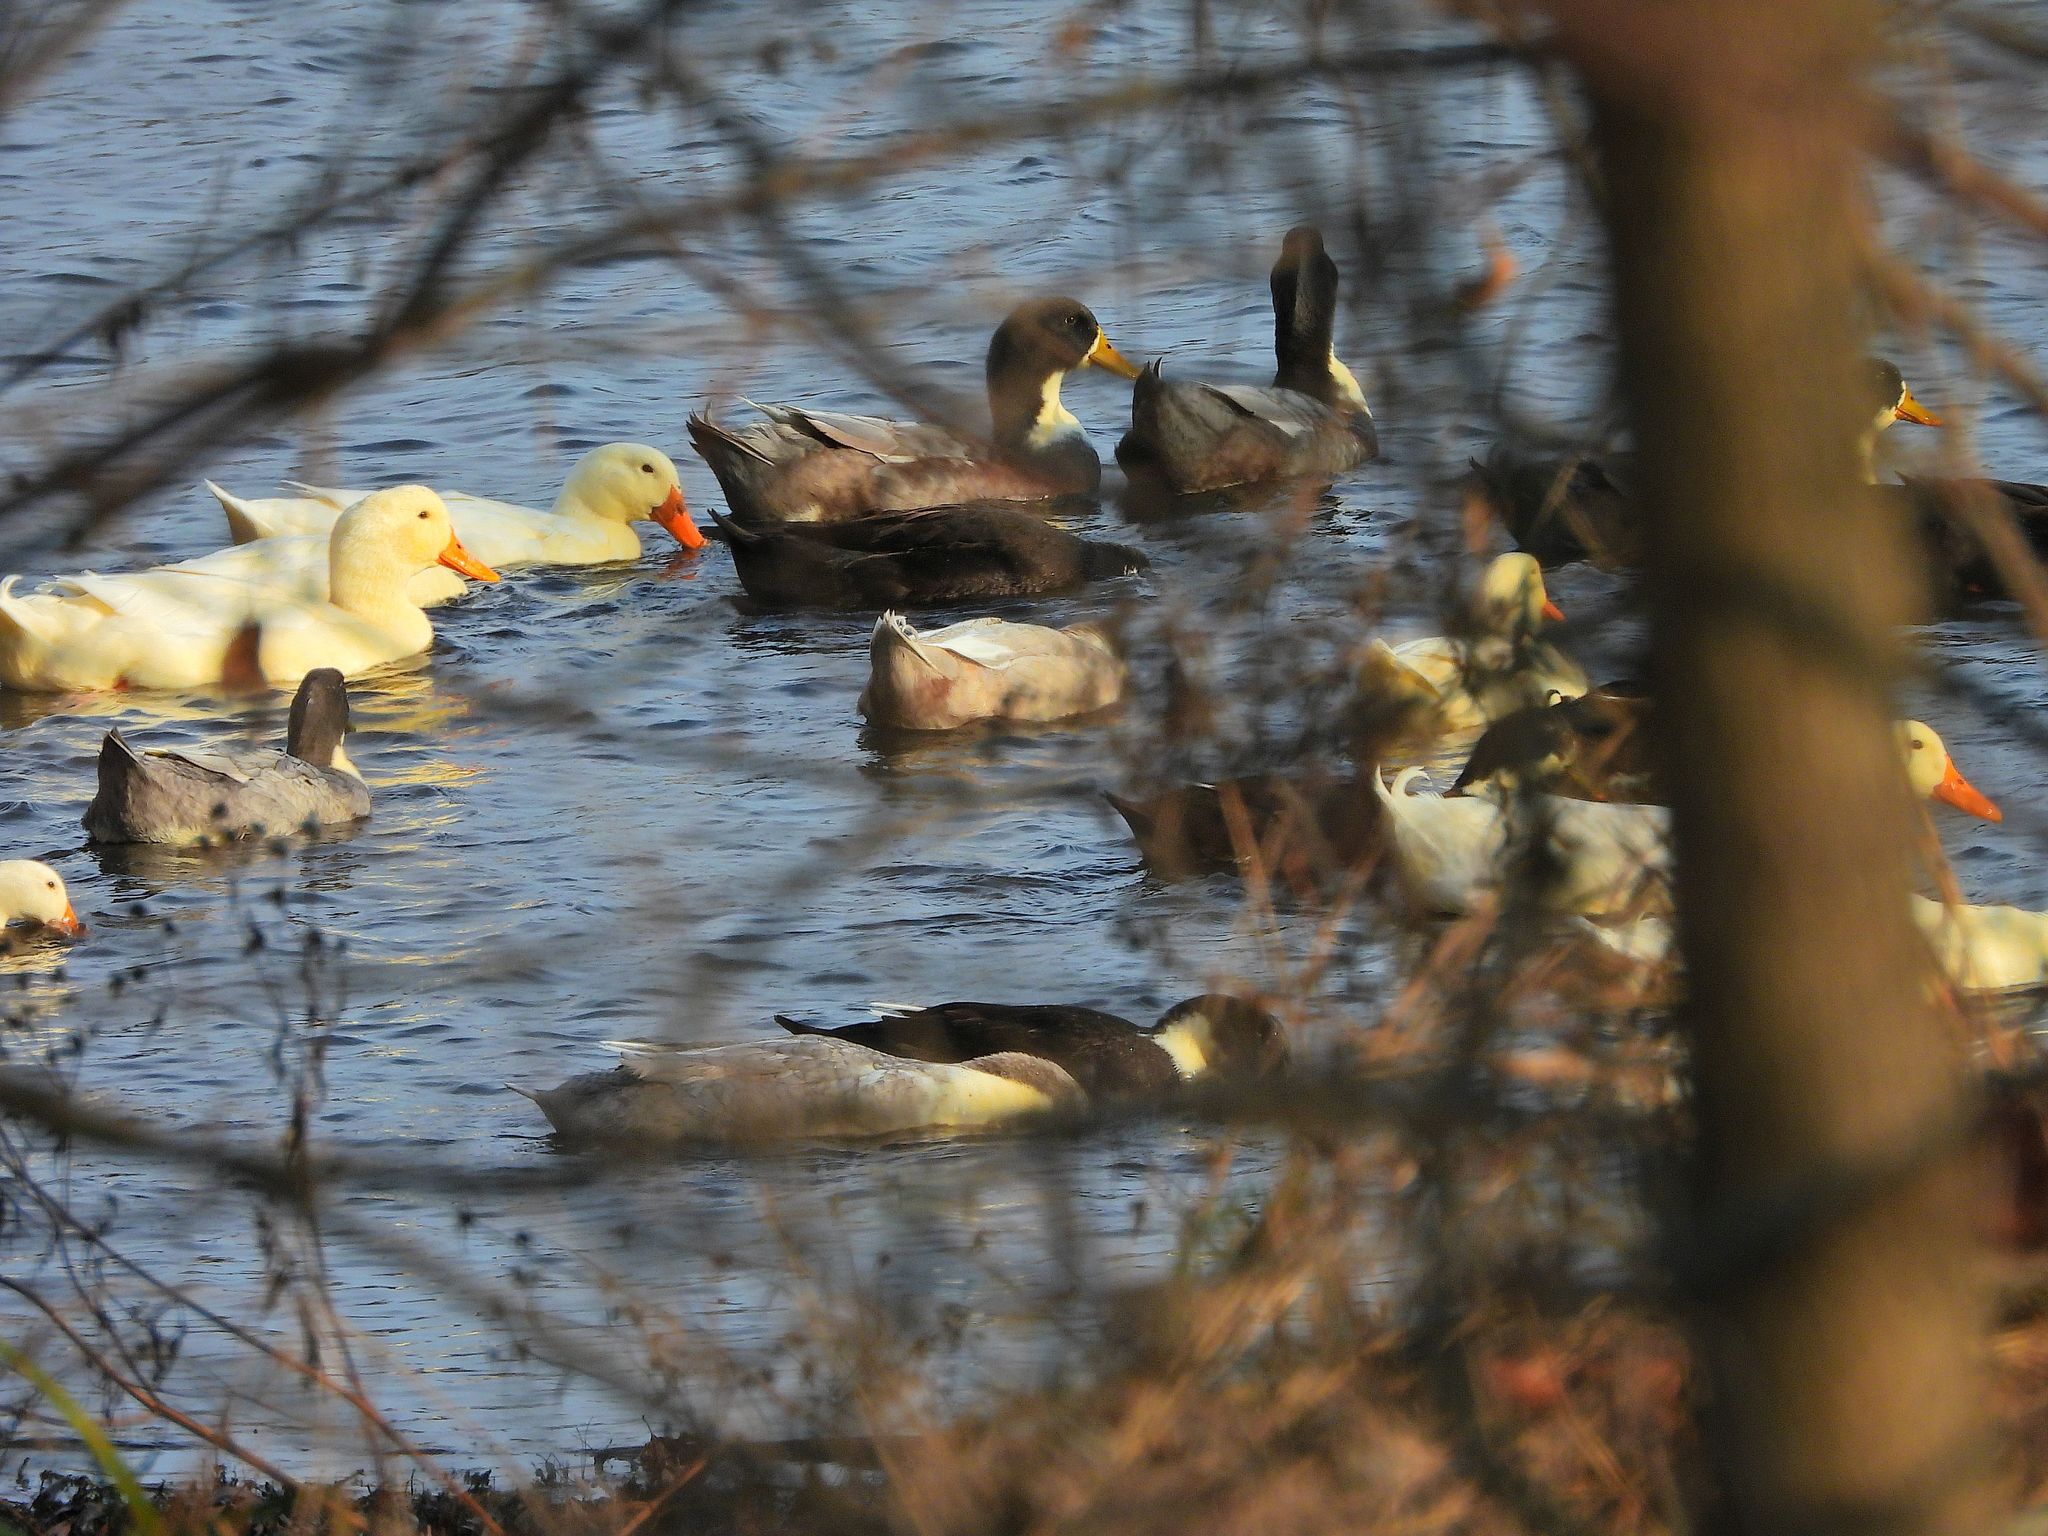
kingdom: Animalia
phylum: Chordata
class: Aves
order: Anseriformes
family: Anatidae
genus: Anas
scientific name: Anas platyrhynchos
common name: Mallard
